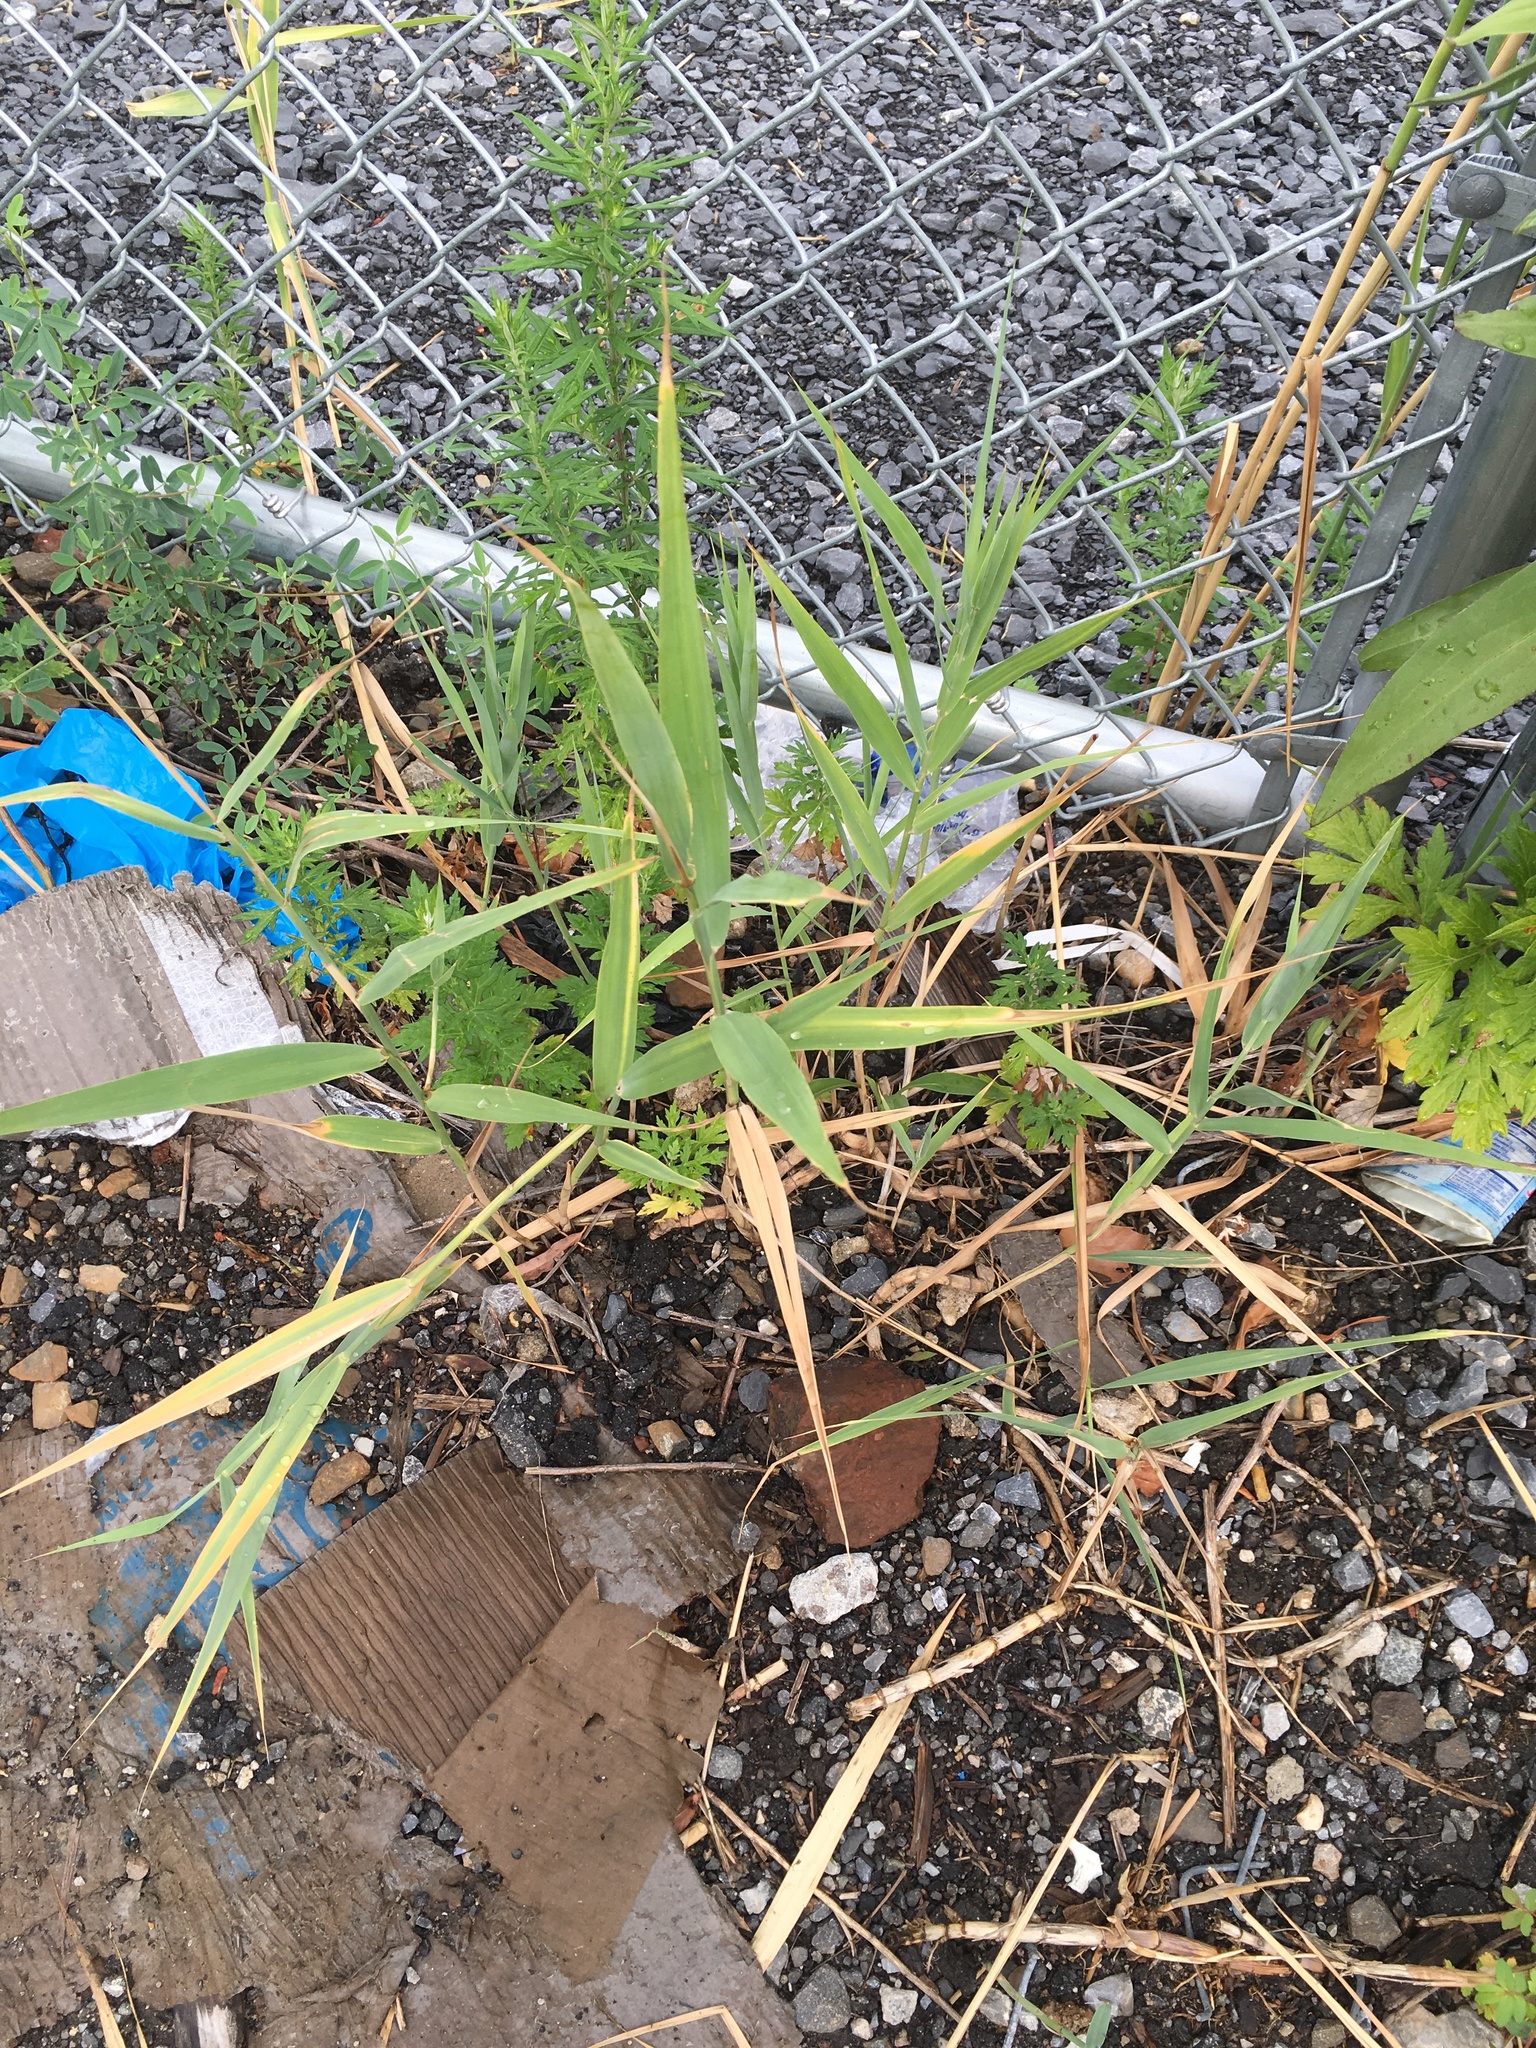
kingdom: Plantae
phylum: Tracheophyta
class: Liliopsida
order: Poales
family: Poaceae
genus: Phragmites
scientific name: Phragmites australis
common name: Common reed
